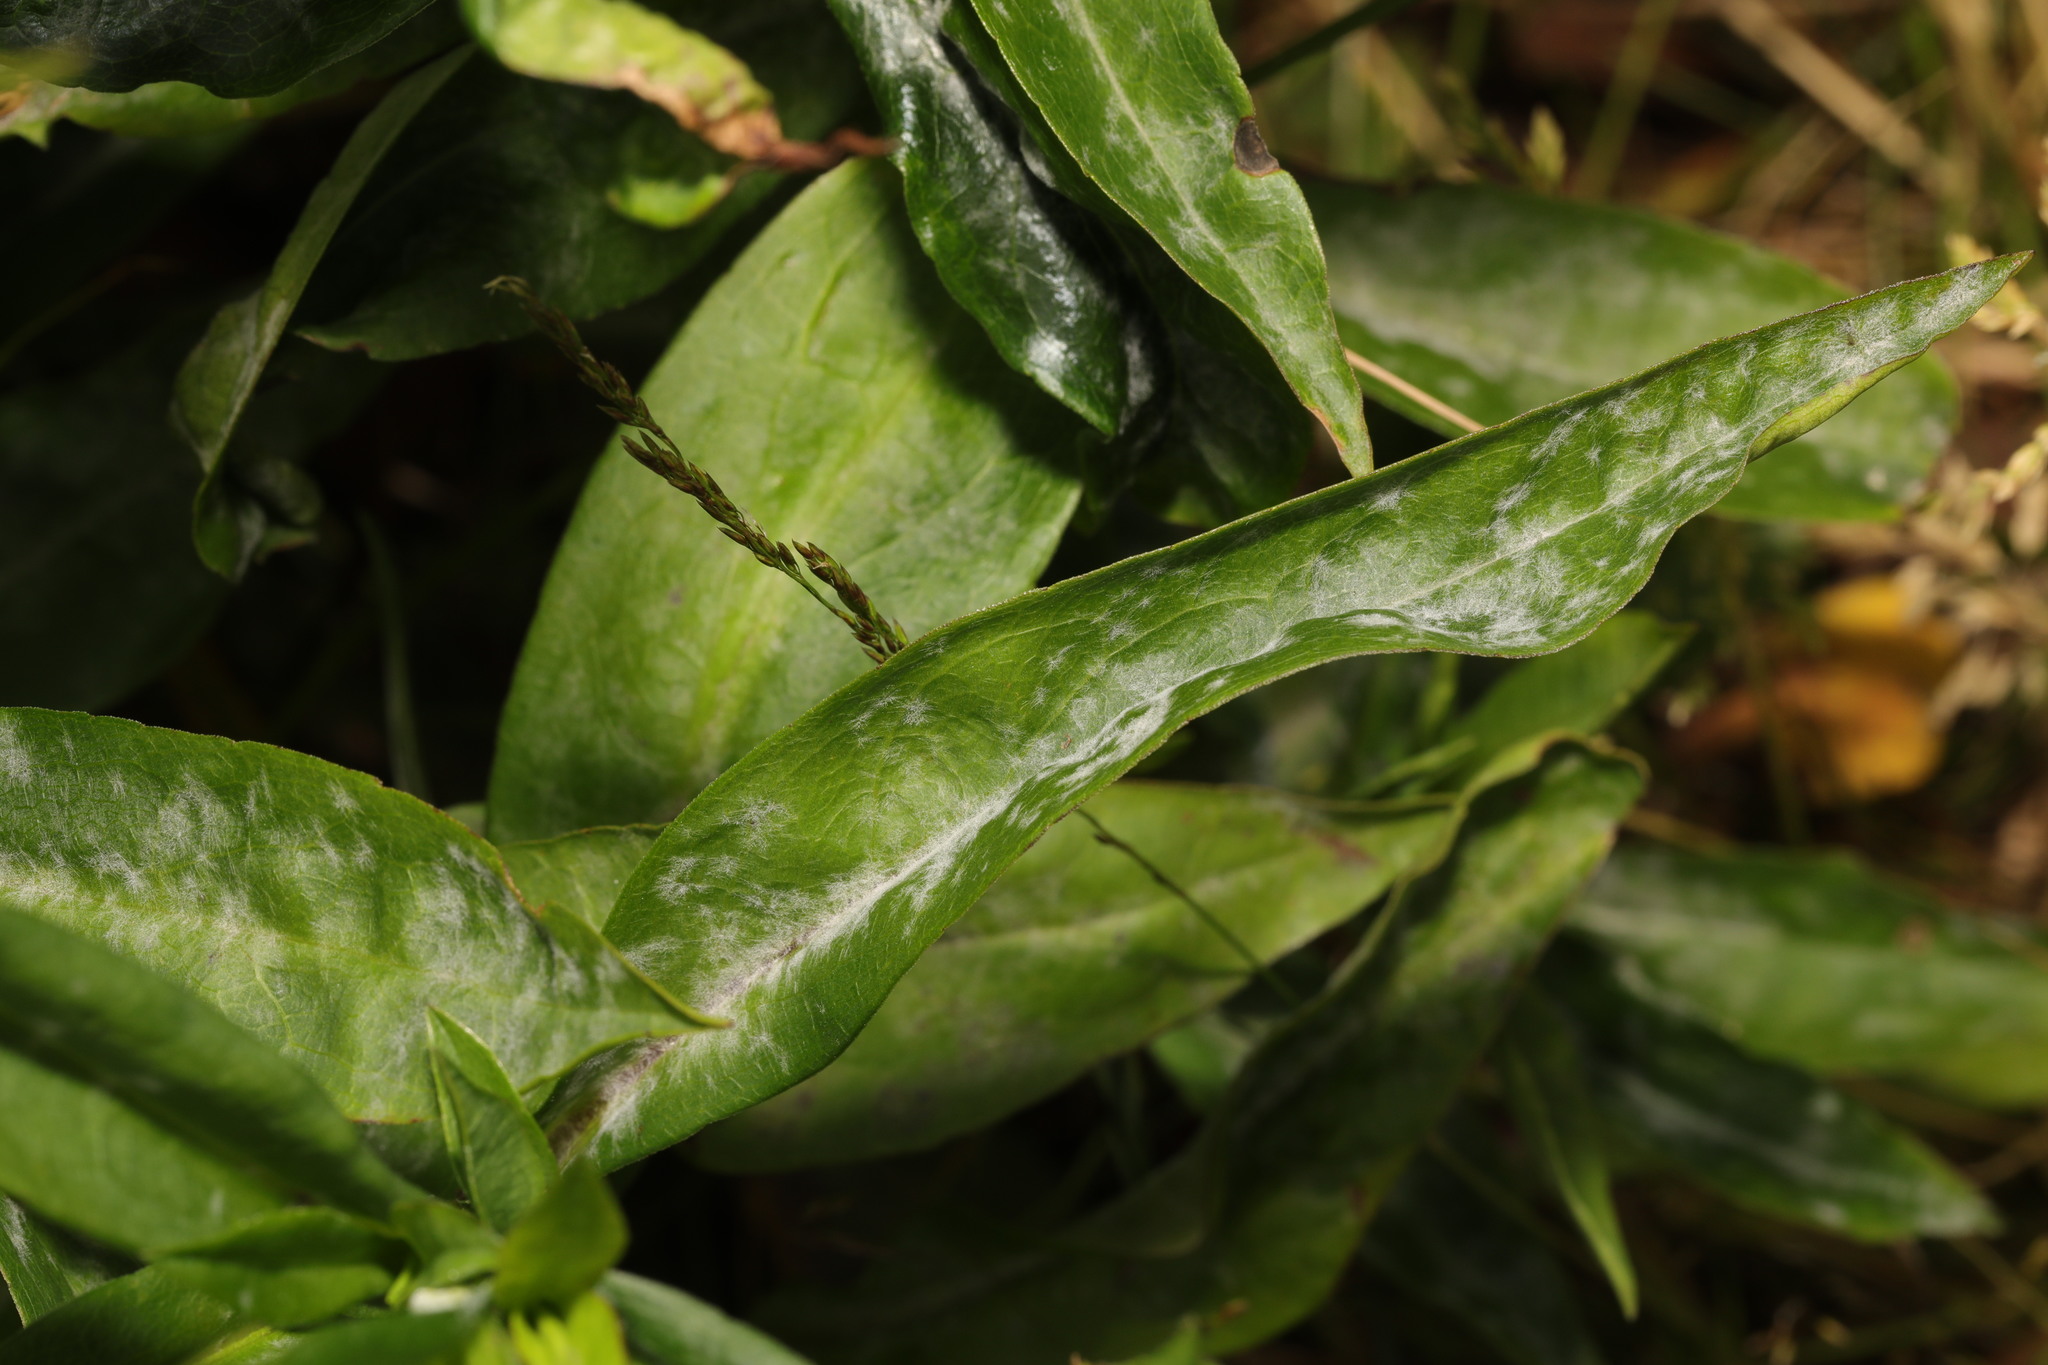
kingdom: Fungi
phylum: Ascomycota
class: Leotiomycetes
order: Helotiales
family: Erysiphaceae
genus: Erysiphe
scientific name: Erysiphe polygoni
